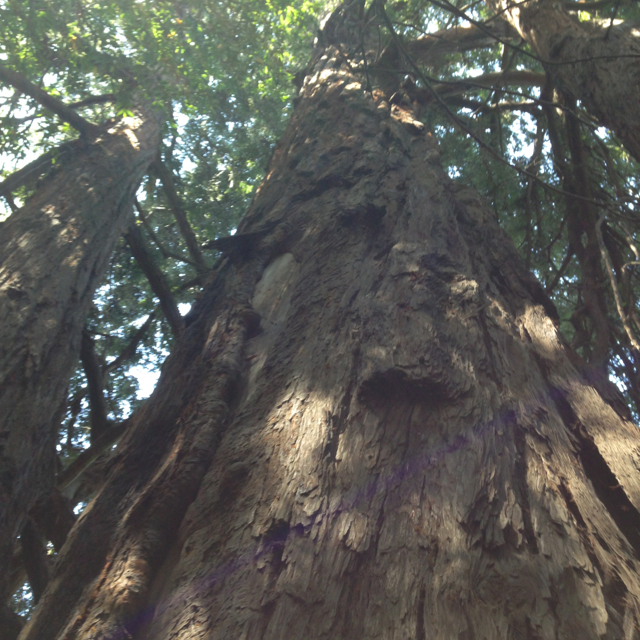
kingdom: Plantae
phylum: Tracheophyta
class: Pinopsida
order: Pinales
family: Cupressaceae
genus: Sequoia
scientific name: Sequoia sempervirens
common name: Coast redwood
